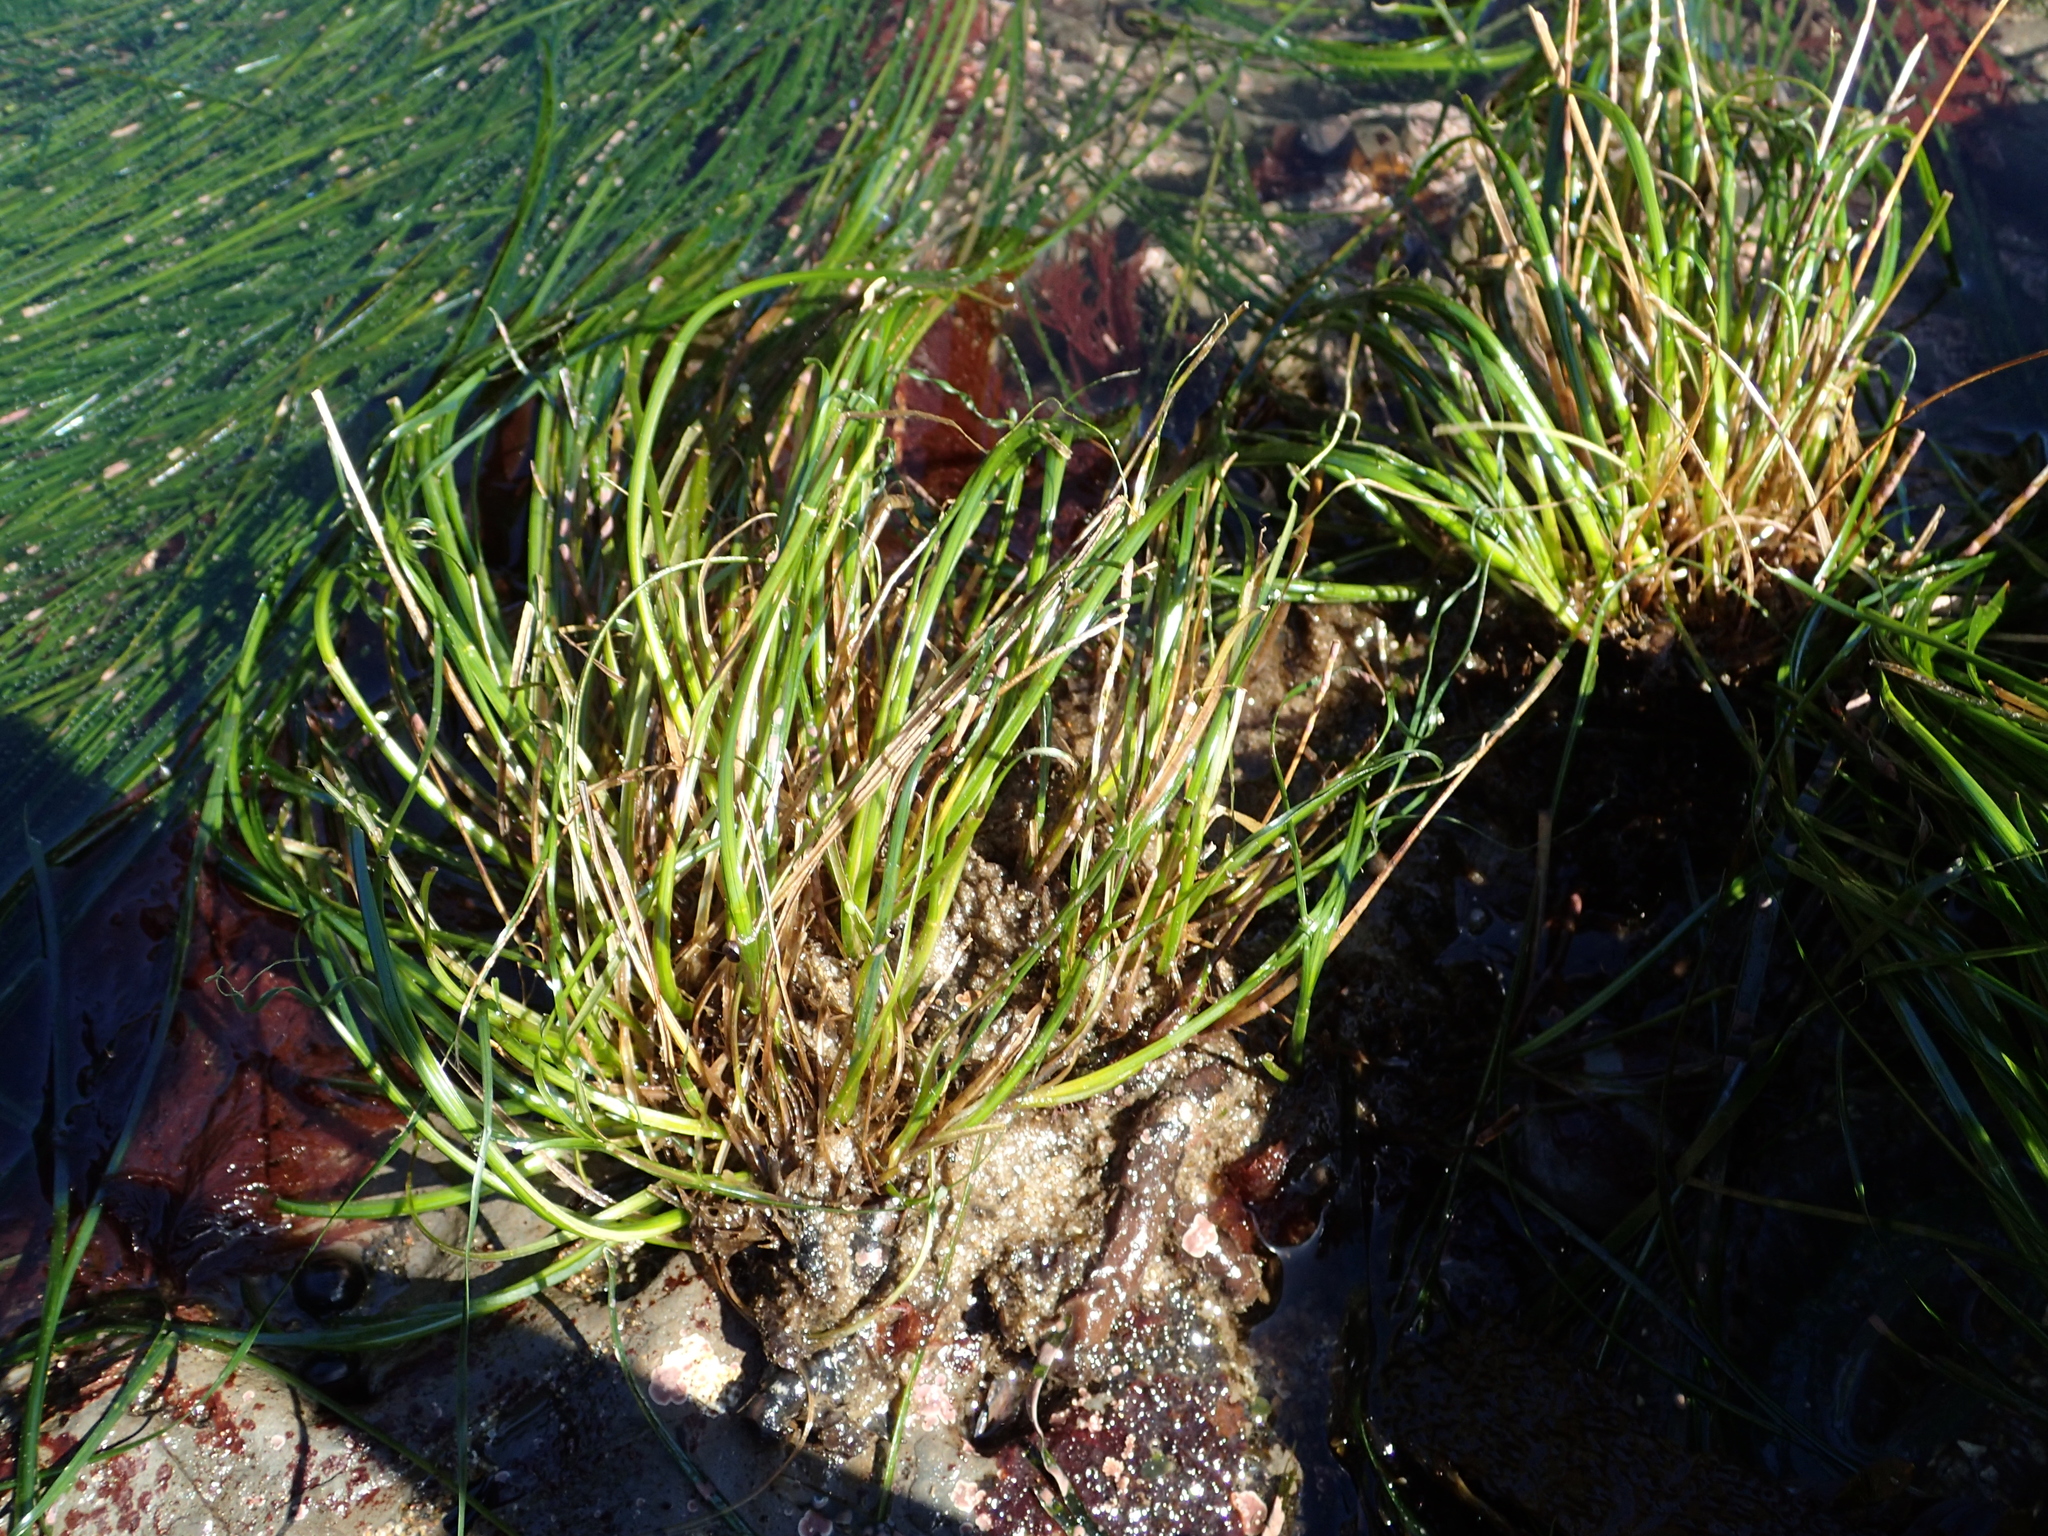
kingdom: Plantae
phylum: Tracheophyta
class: Liliopsida
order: Alismatales
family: Zosteraceae
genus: Phyllospadix
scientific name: Phyllospadix torreyi
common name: Surfgrass
